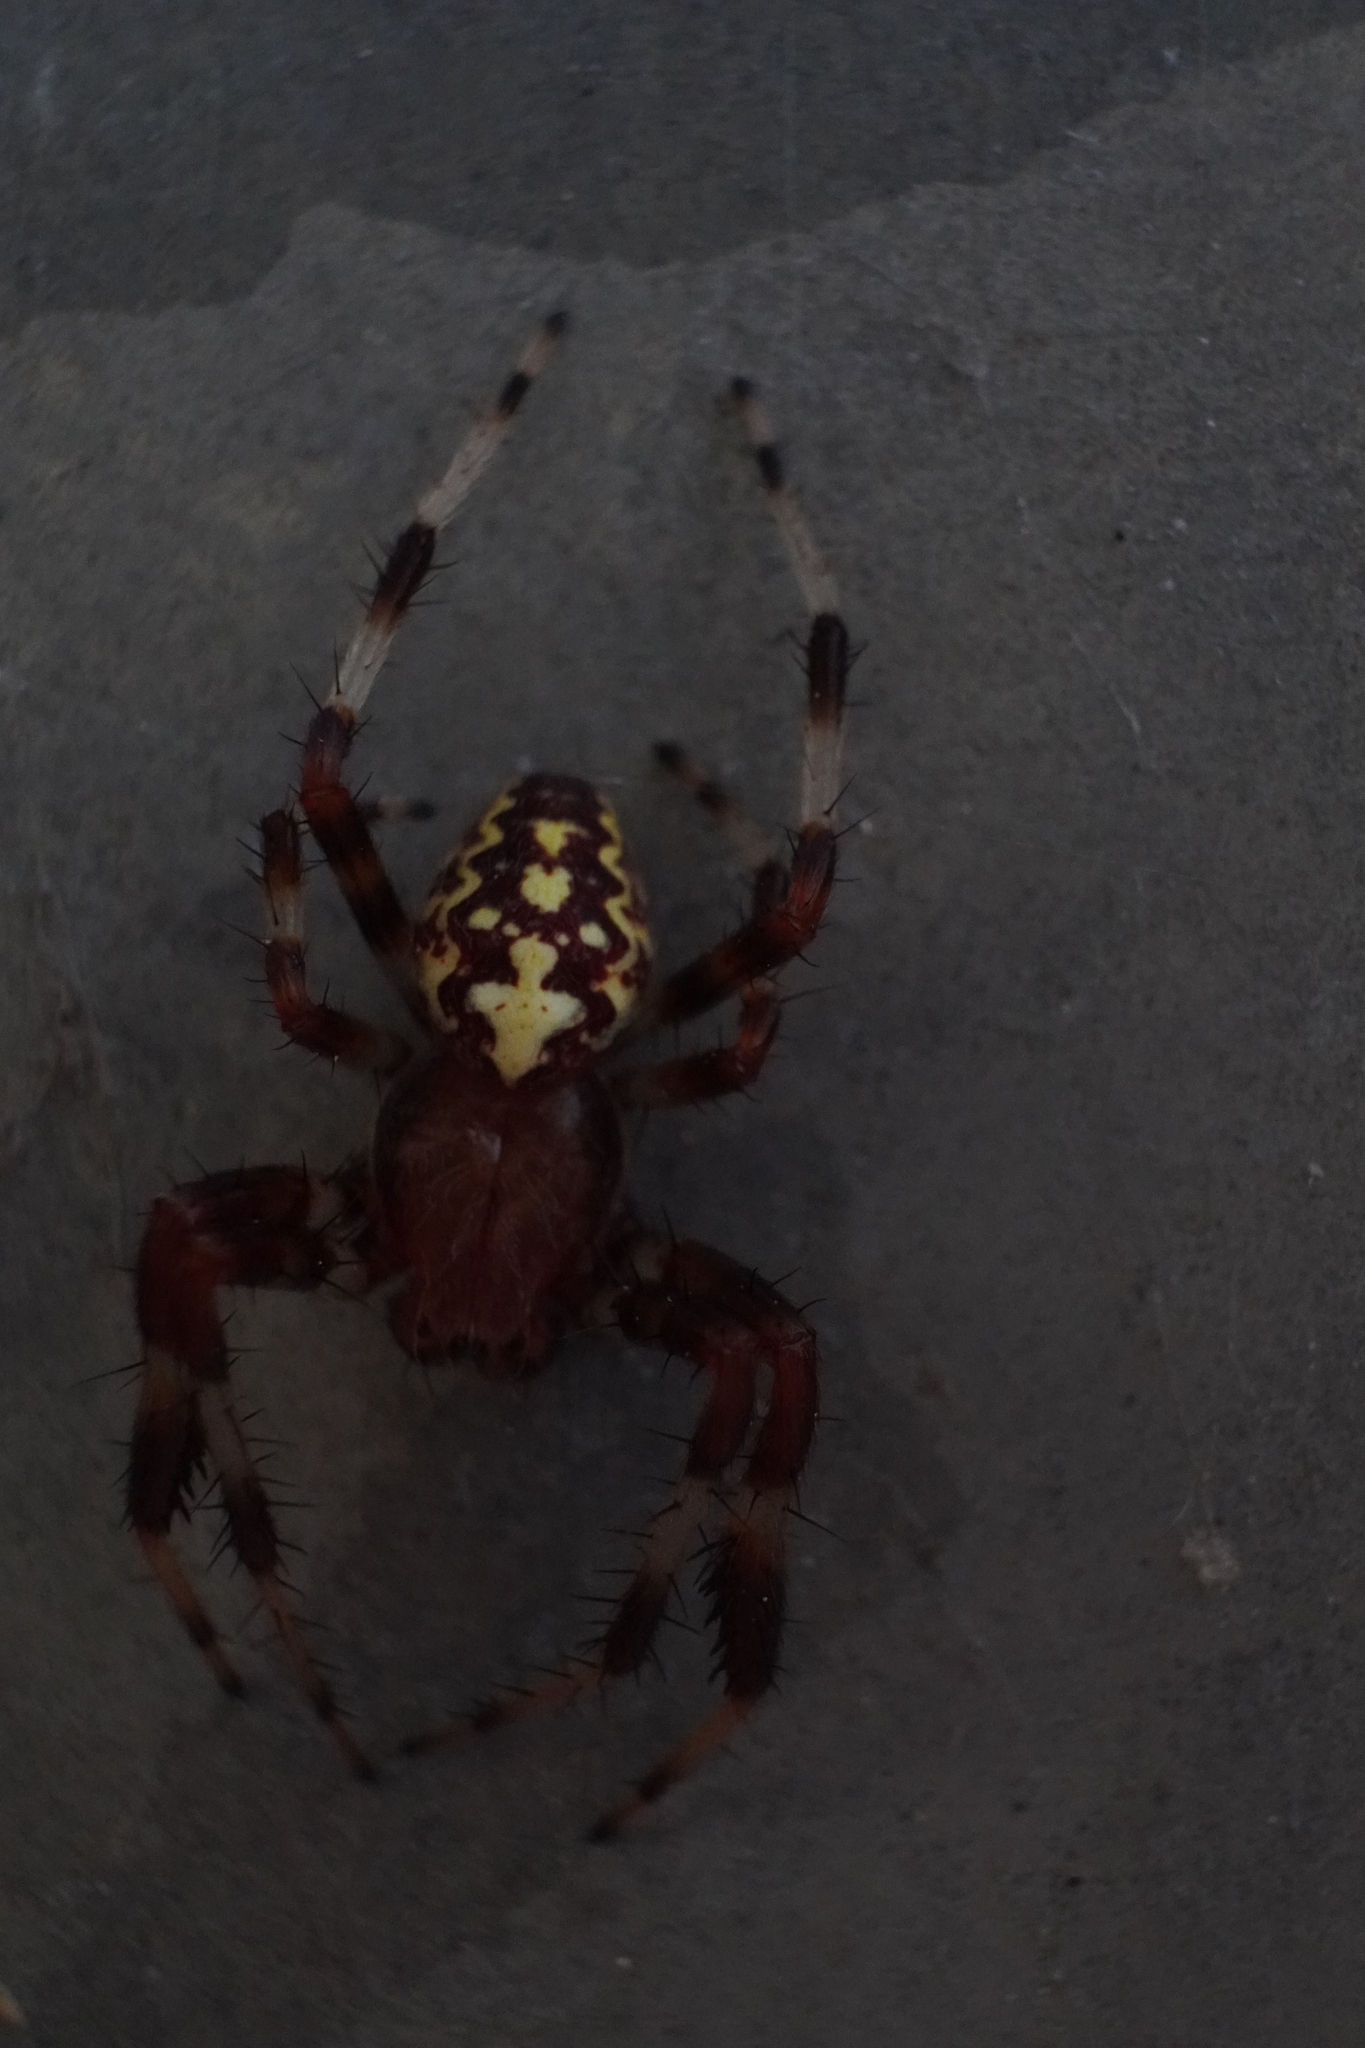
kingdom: Animalia
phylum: Arthropoda
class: Arachnida
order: Araneae
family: Araneidae
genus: Araneus
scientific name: Araneus marmoreus
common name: Marbled orbweaver
